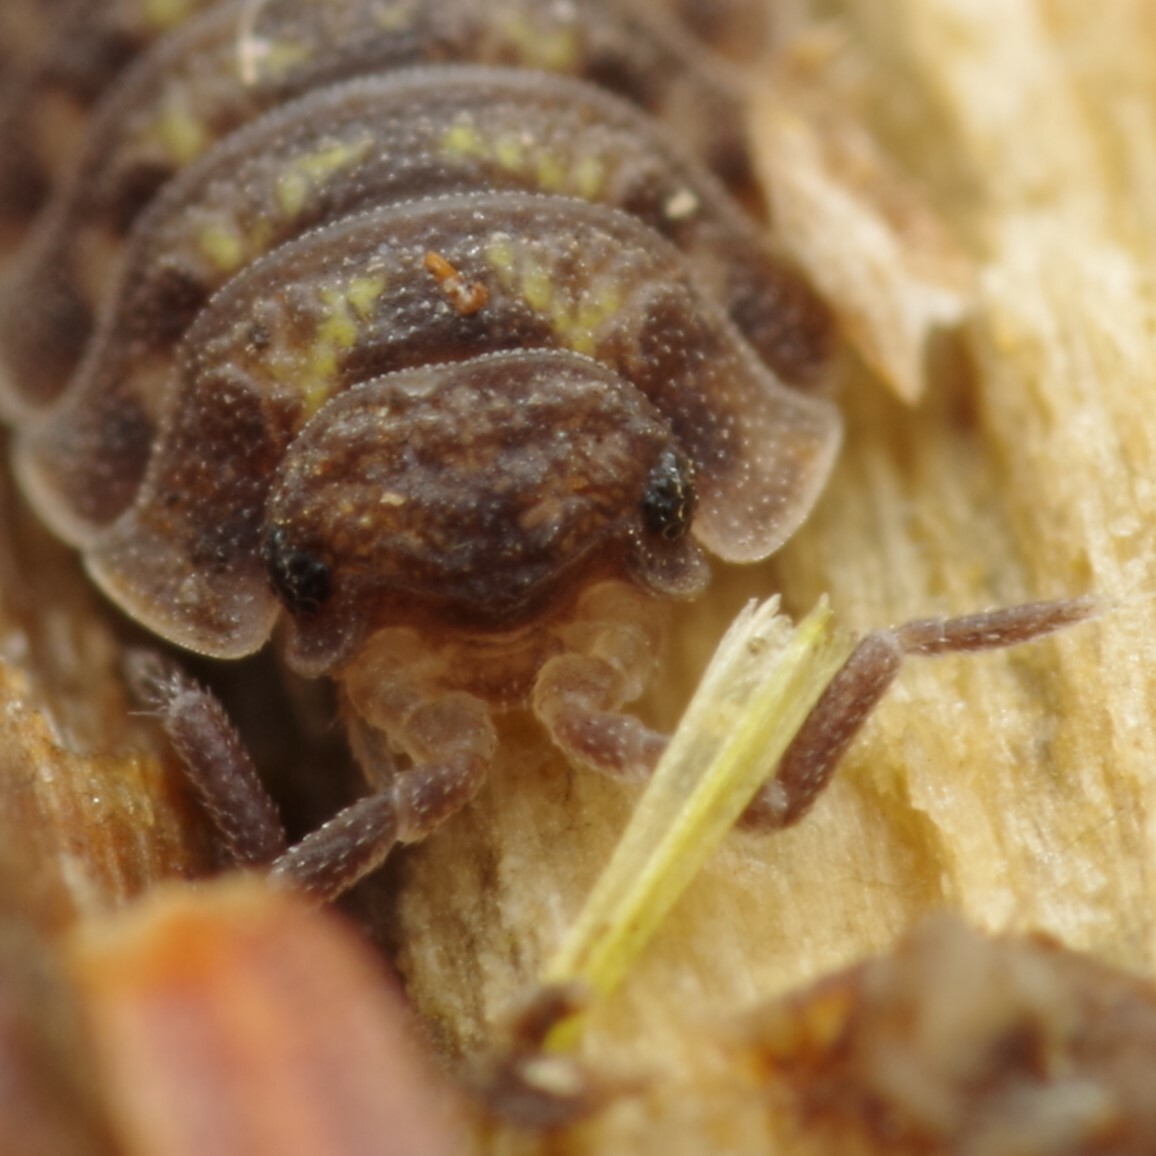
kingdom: Animalia
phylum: Arthropoda
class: Malacostraca
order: Isopoda
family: Oniscidae
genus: Oniscus
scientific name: Oniscus asellus
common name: Common shiny woodlouse
